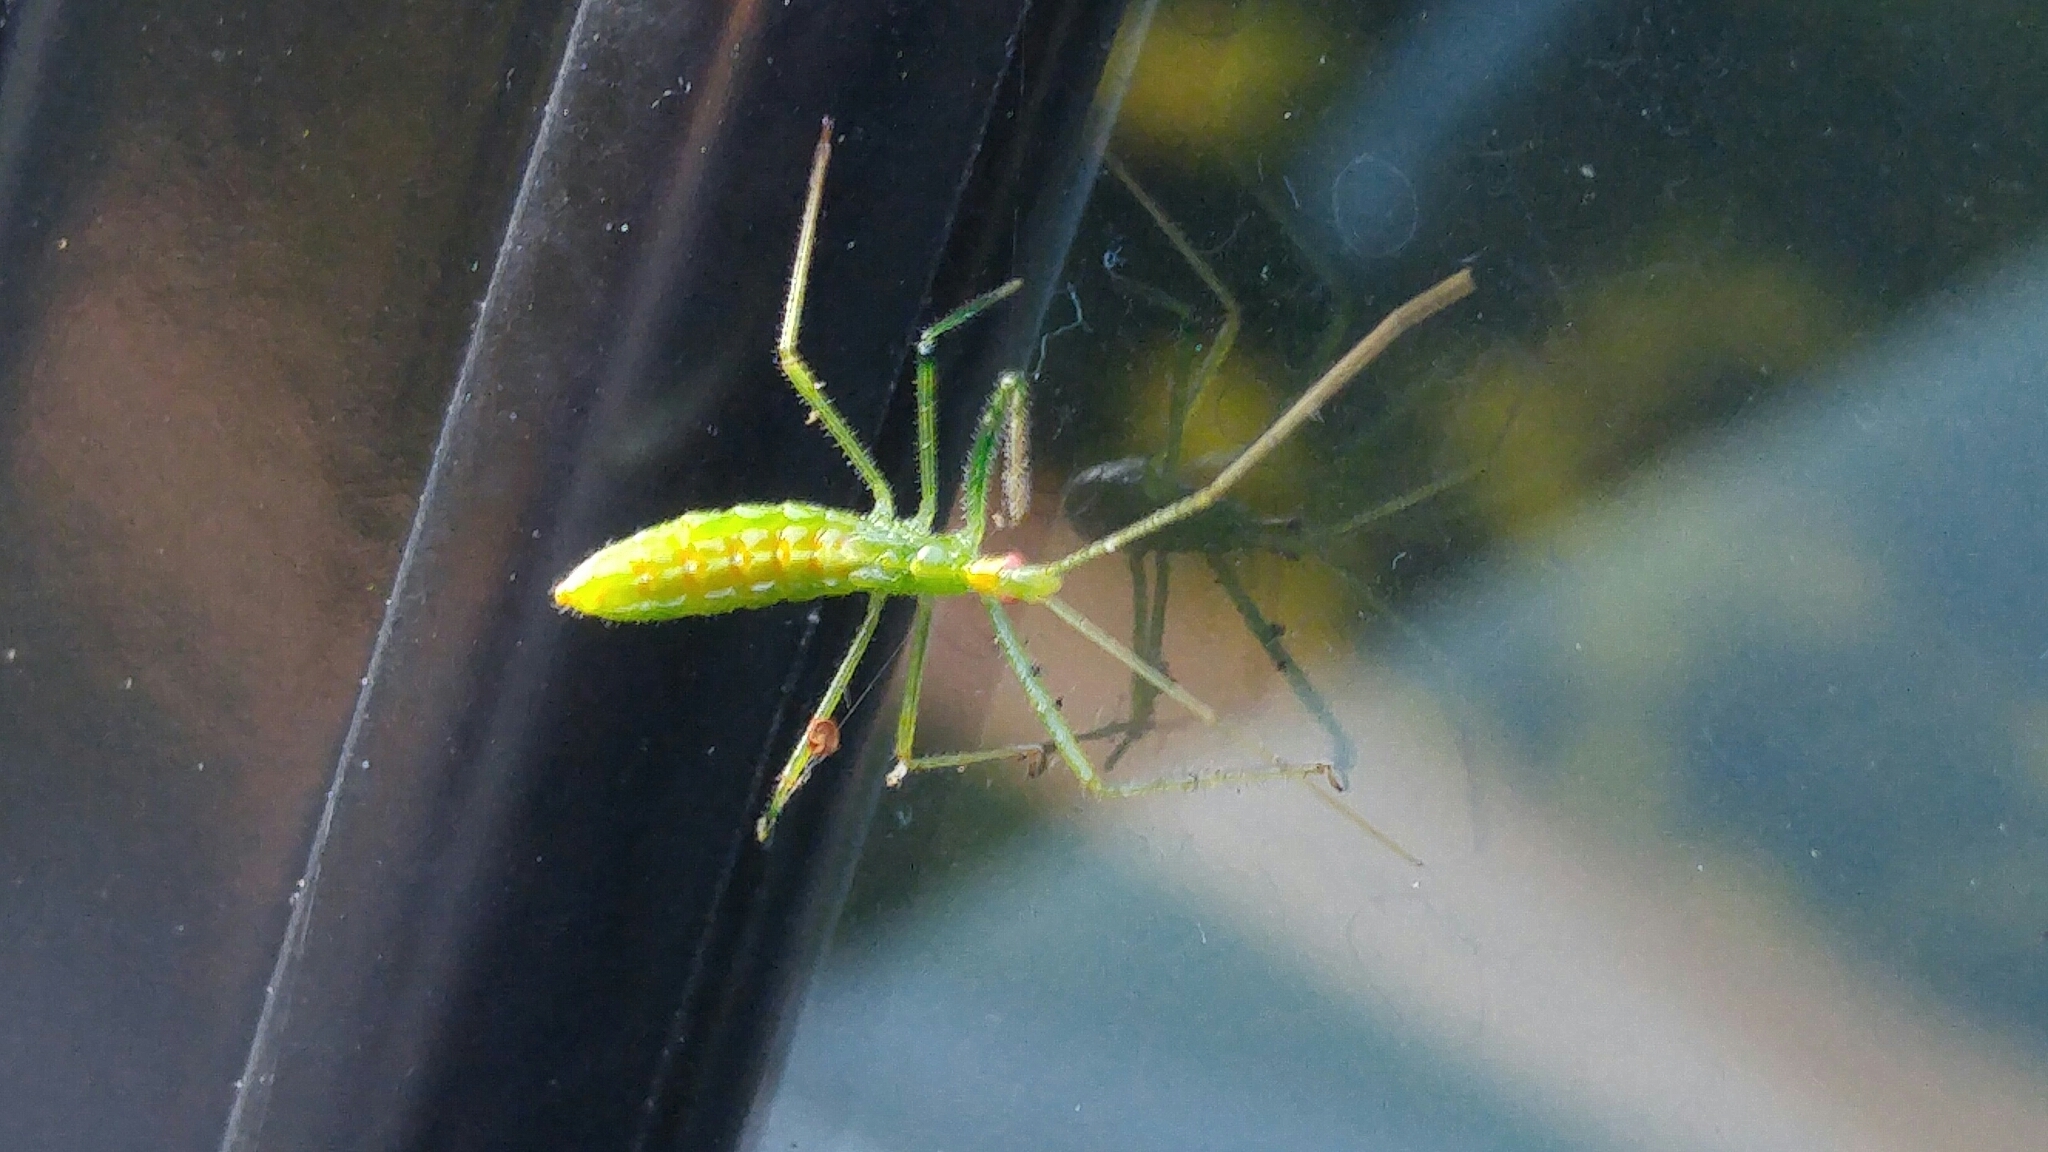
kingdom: Animalia
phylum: Arthropoda
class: Insecta
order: Hemiptera
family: Reduviidae
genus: Zelus
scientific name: Zelus luridus
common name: Pale green assassin bug
